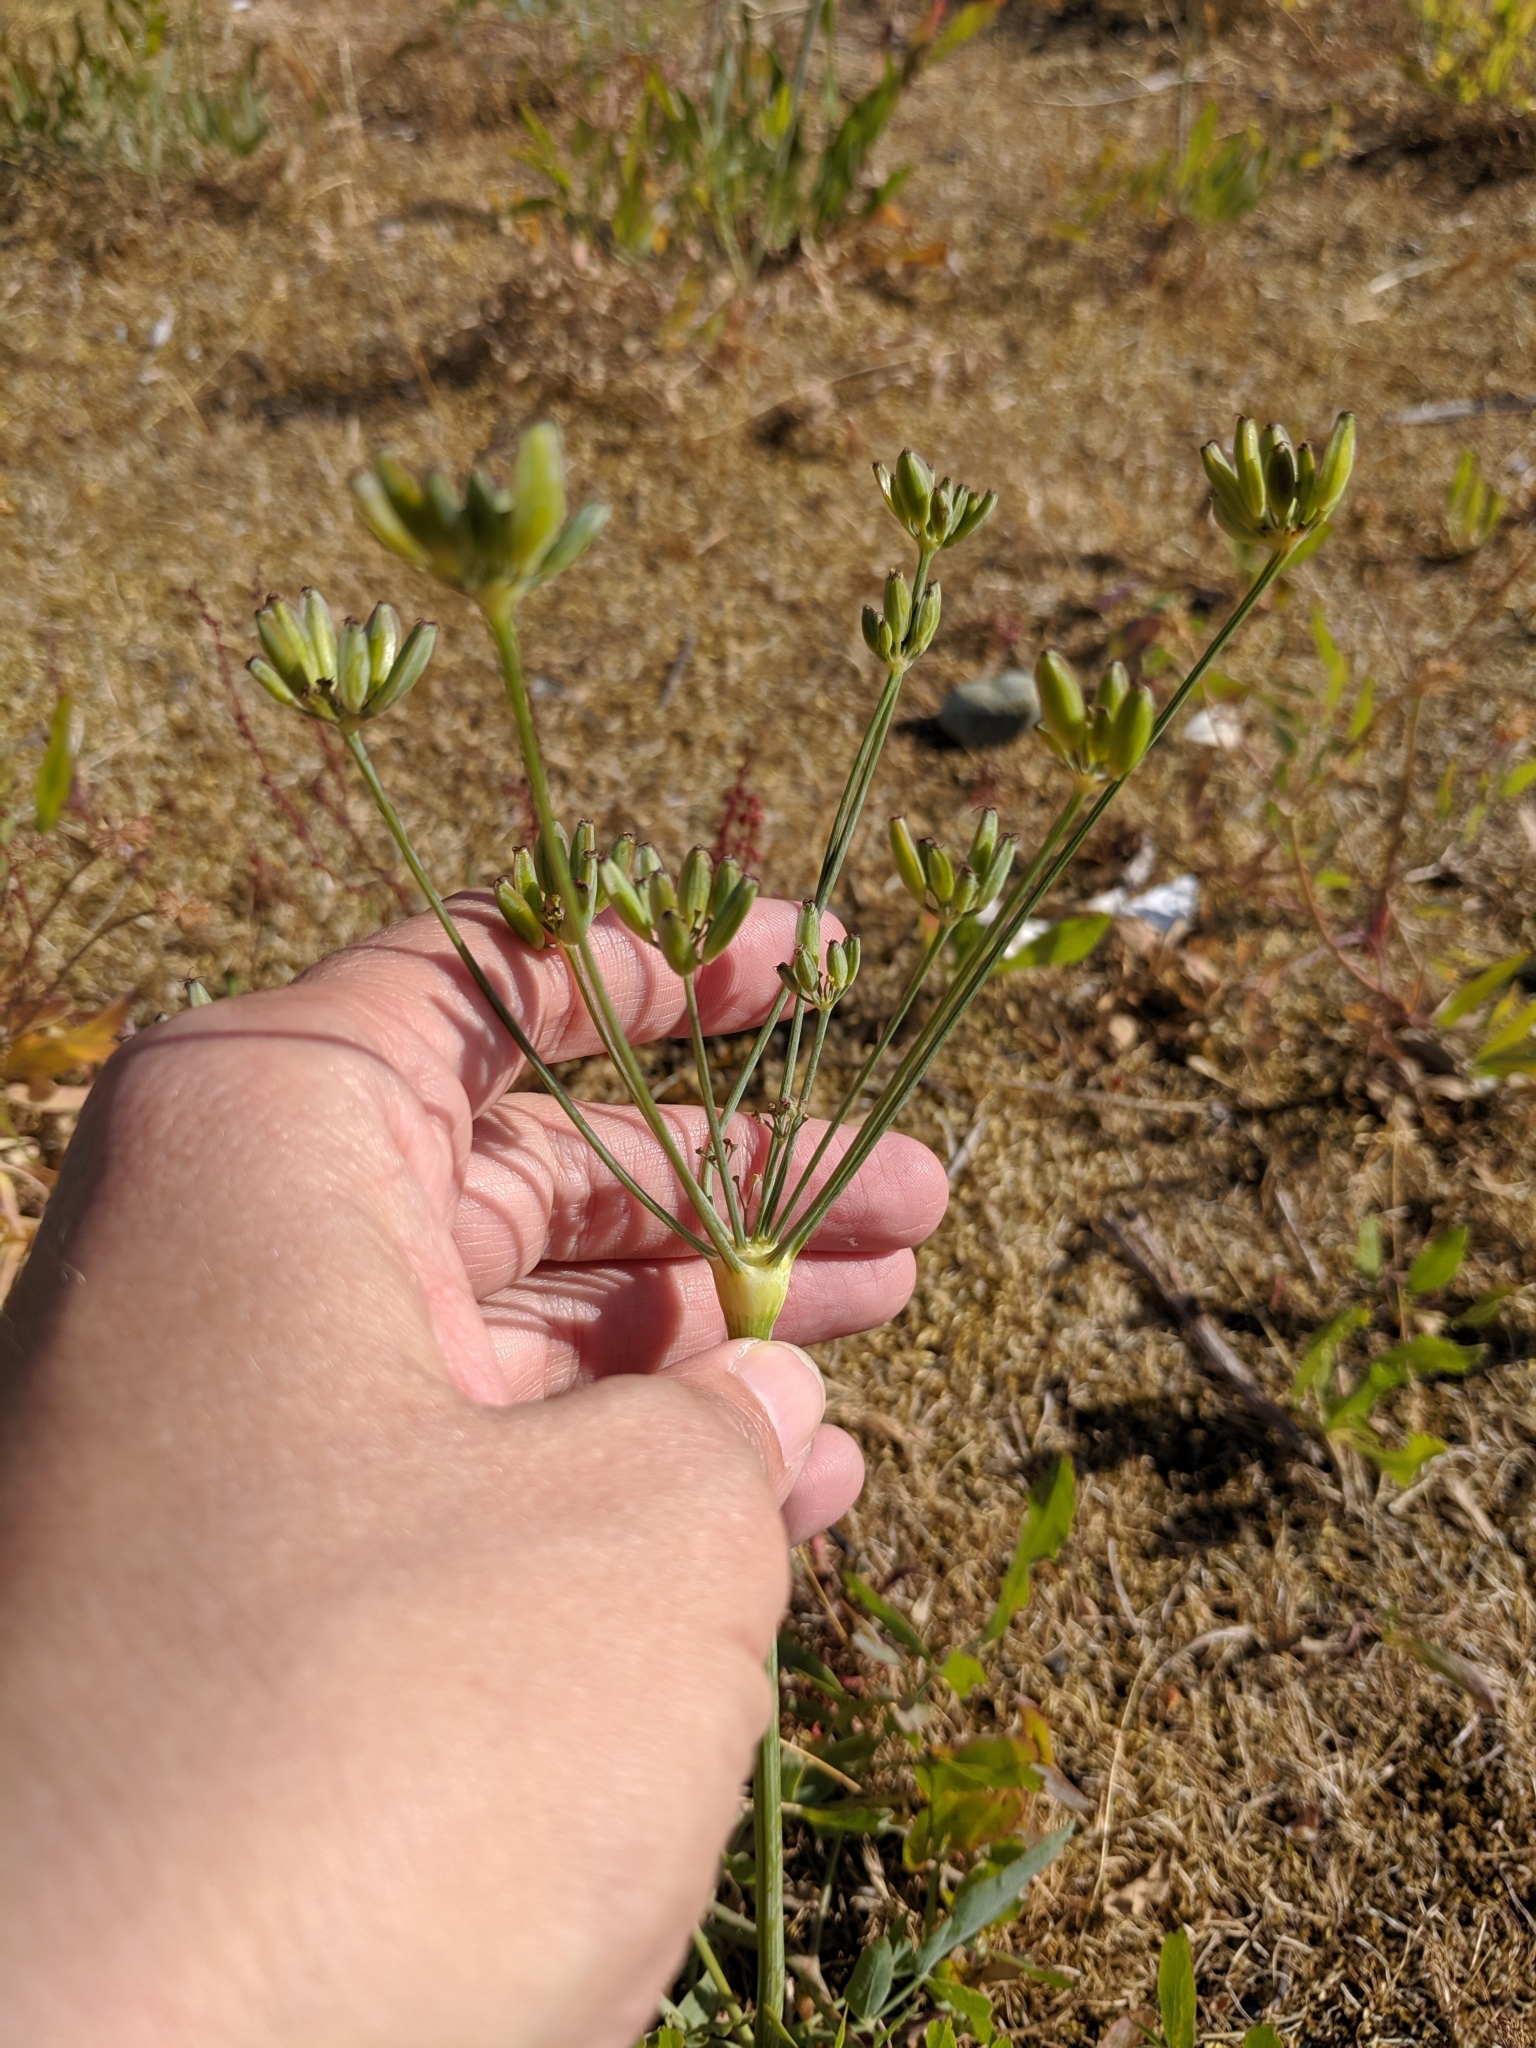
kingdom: Plantae
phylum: Tracheophyta
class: Magnoliopsida
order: Apiales
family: Apiaceae
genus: Lomatium
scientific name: Lomatium nudicaule
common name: Pestle lomatium
